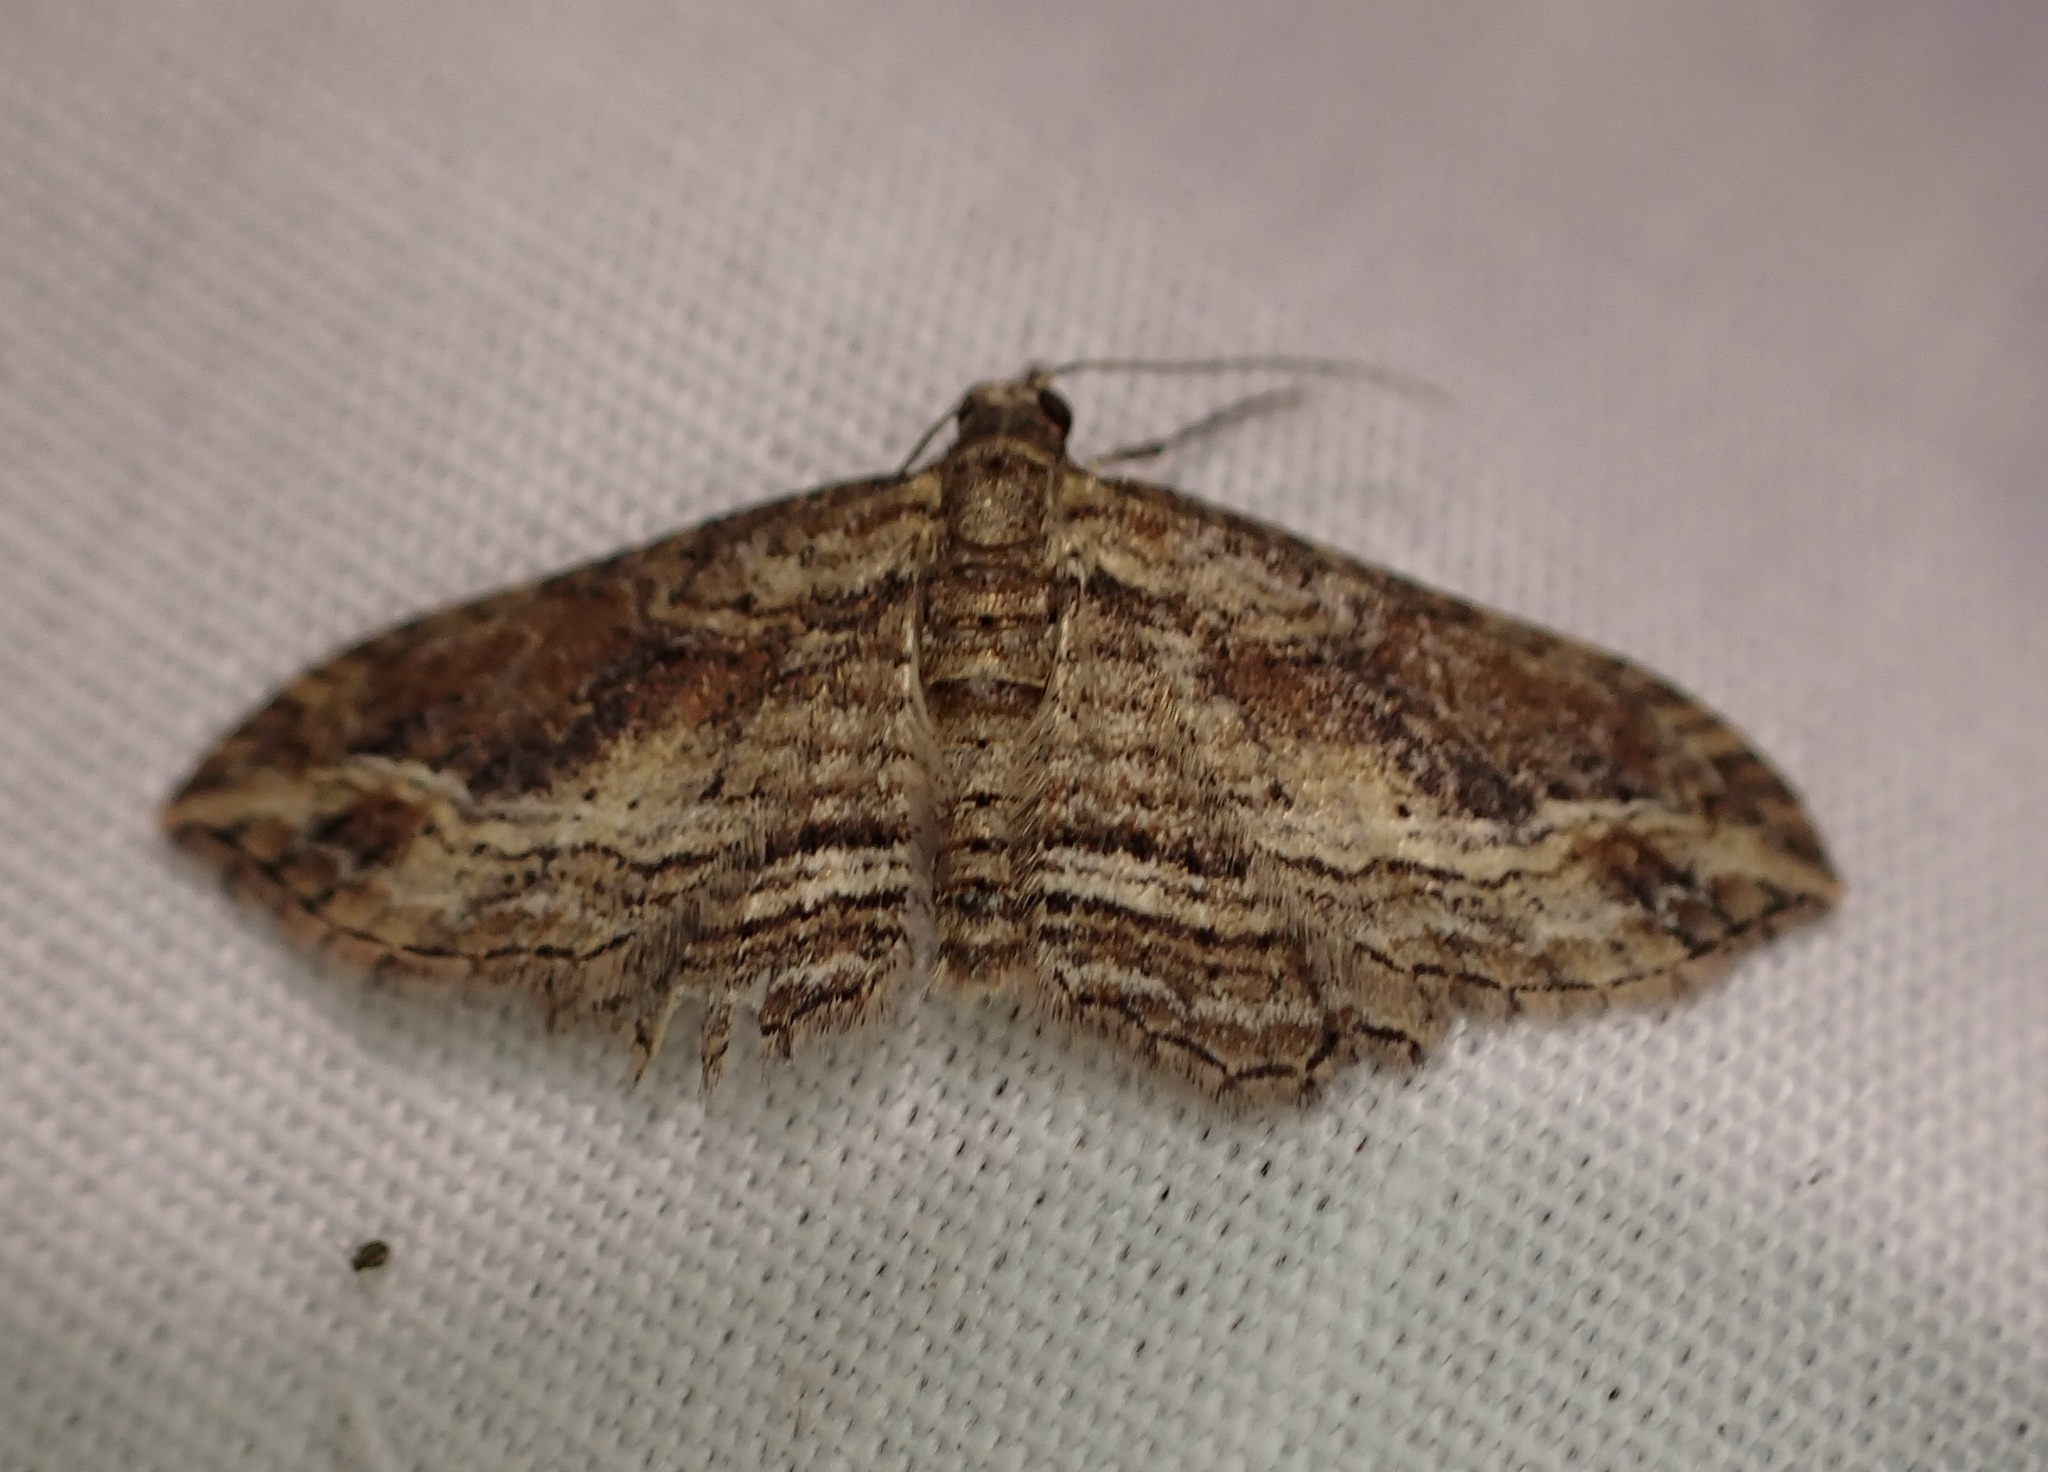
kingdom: Animalia
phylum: Arthropoda
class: Insecta
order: Lepidoptera
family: Geometridae
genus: Chloroclystis
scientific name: Chloroclystis filata
